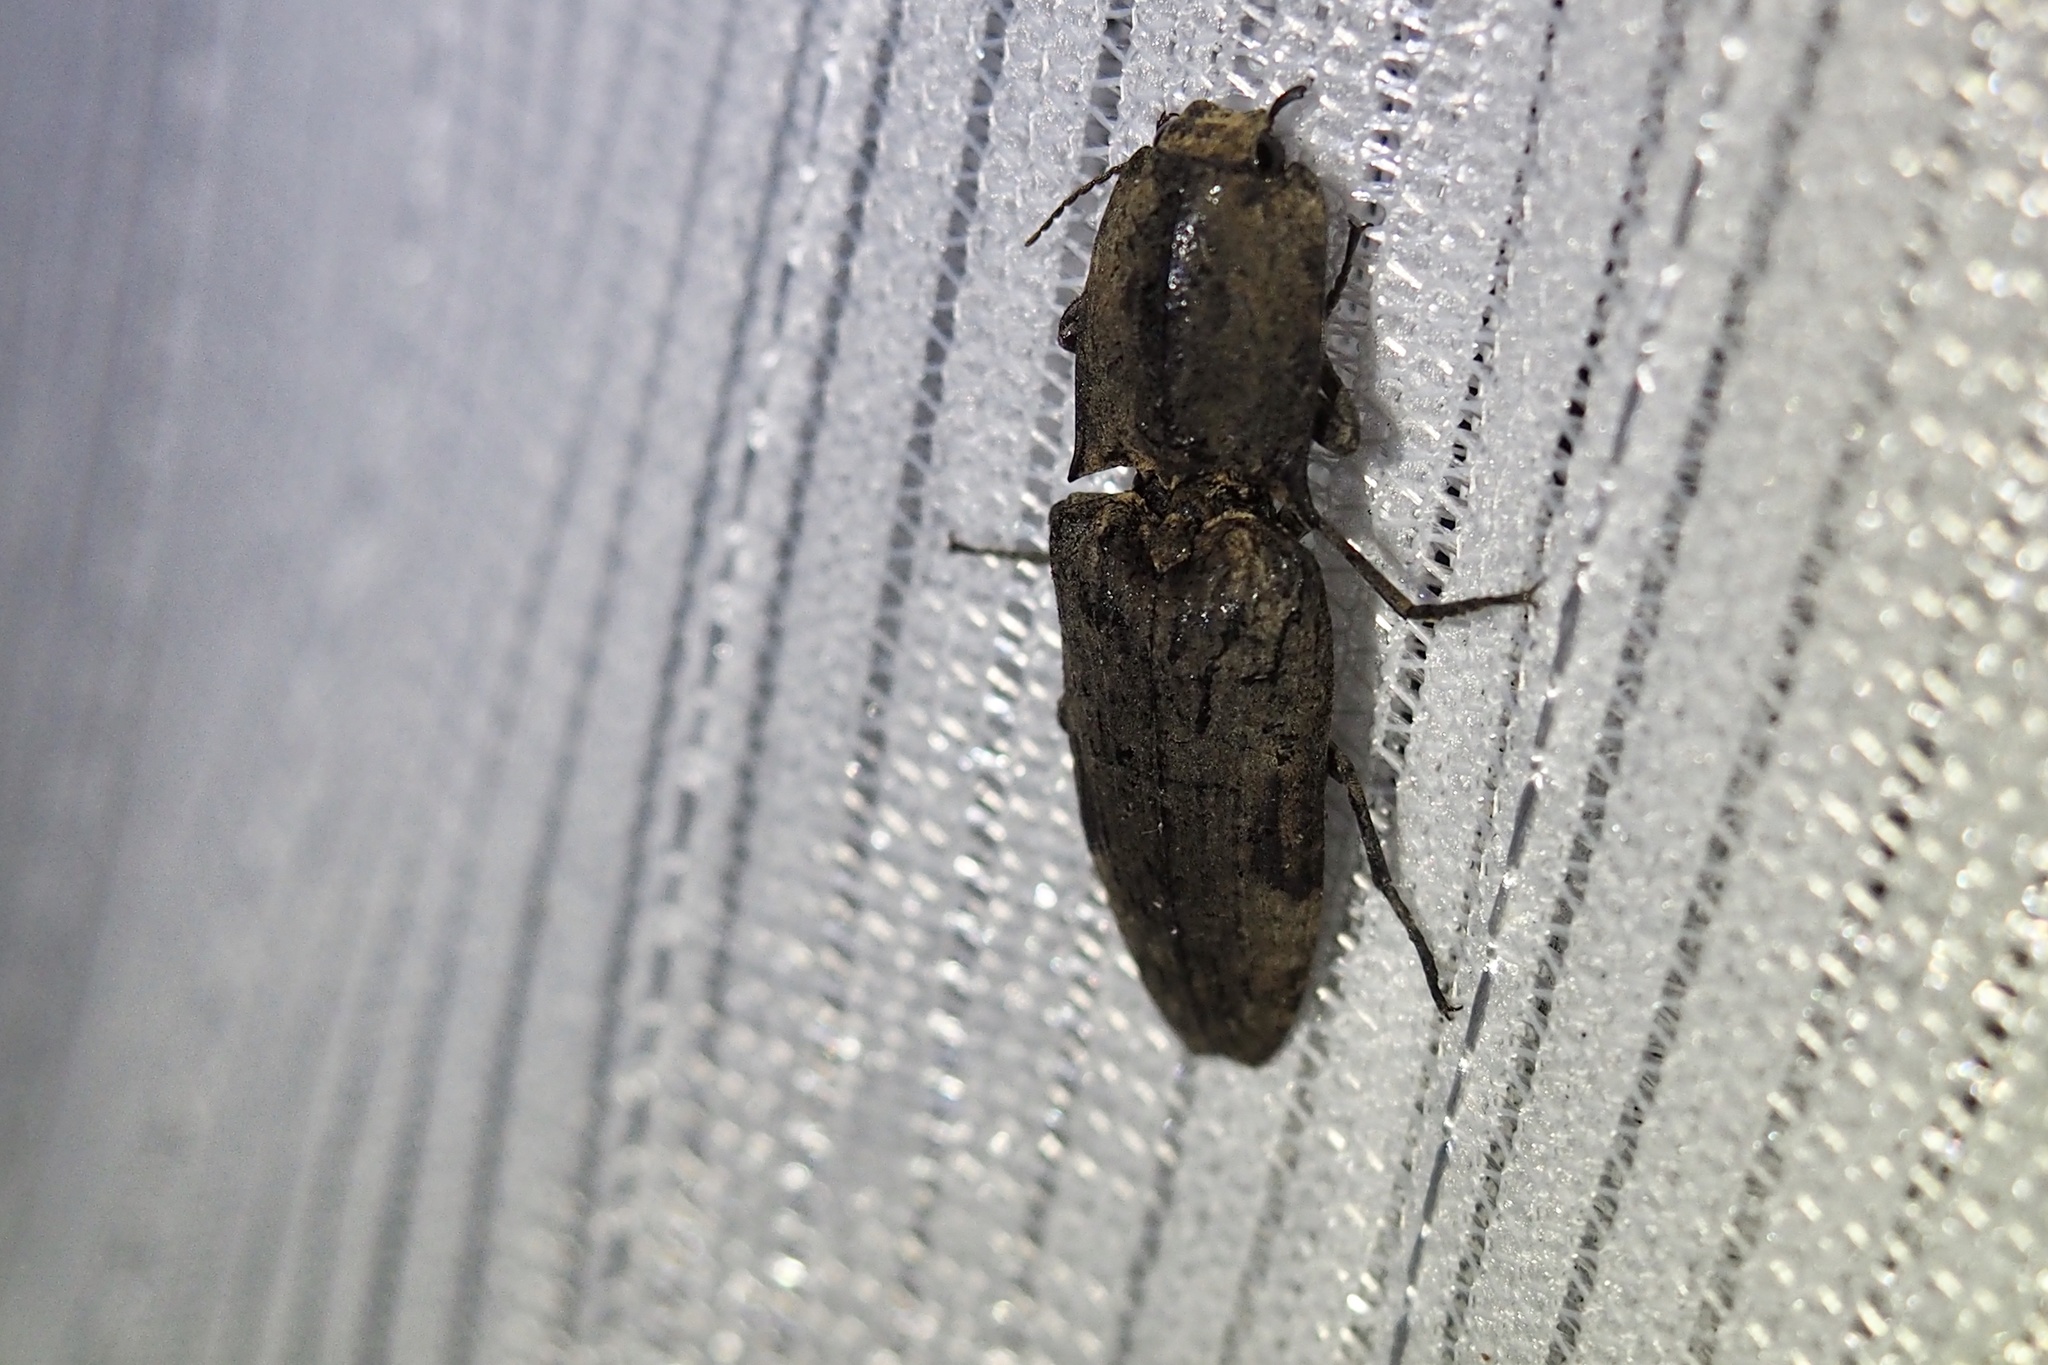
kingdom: Animalia
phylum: Arthropoda
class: Insecta
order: Coleoptera
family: Elateridae
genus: Cryptalaus
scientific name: Cryptalaus larvatus
